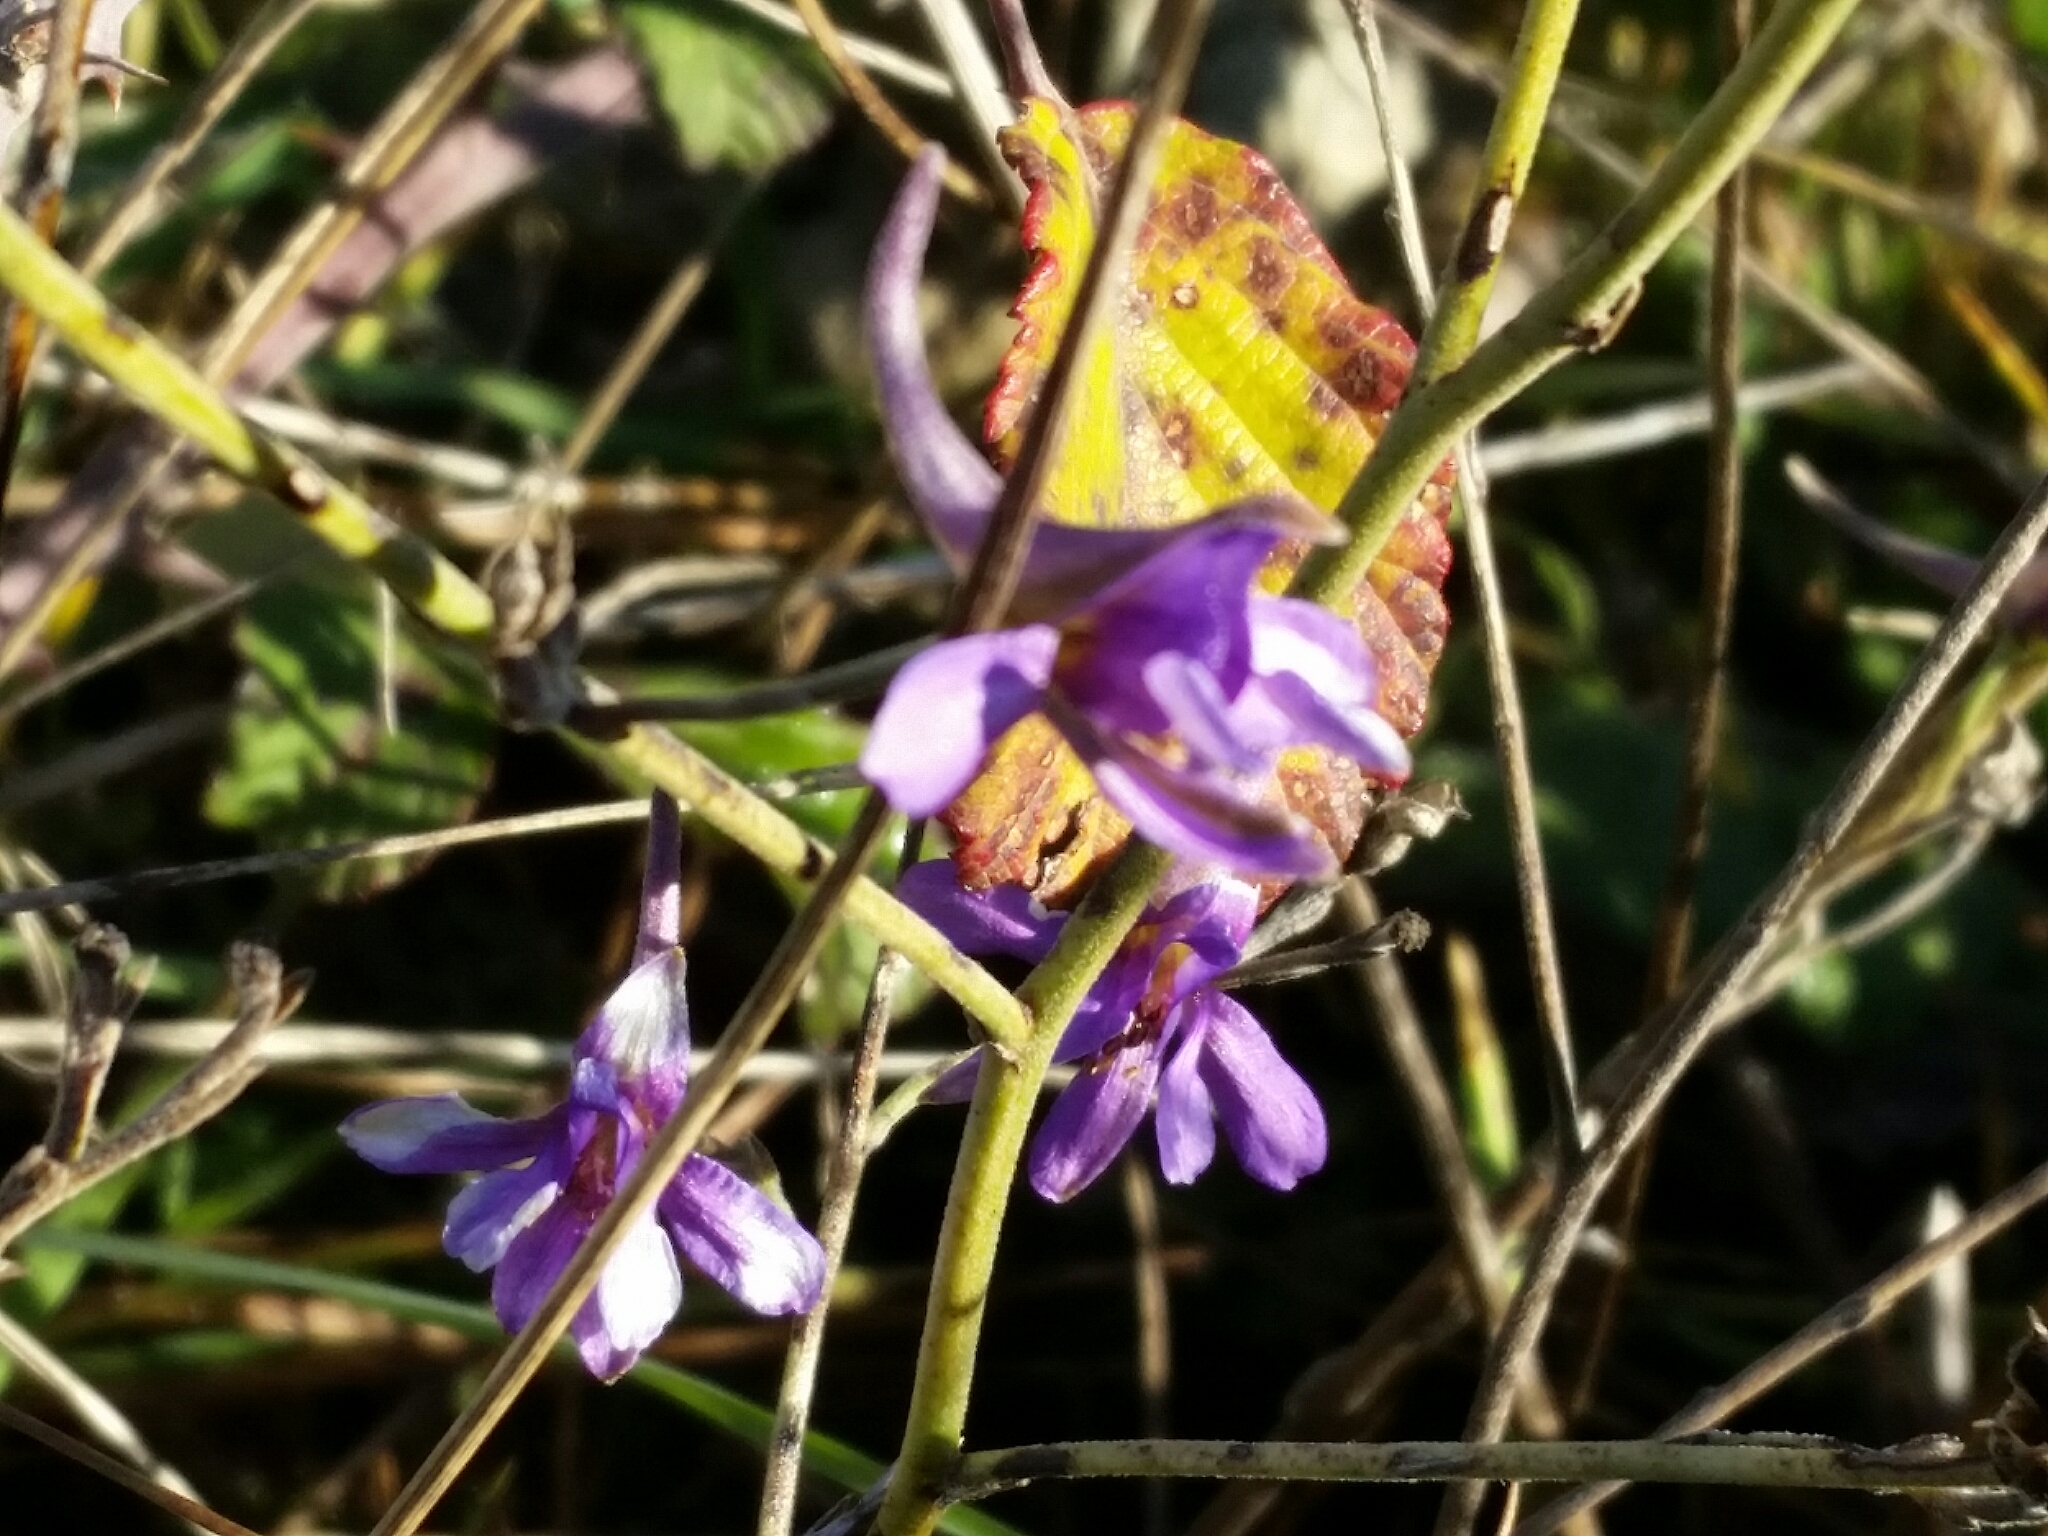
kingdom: Plantae
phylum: Tracheophyta
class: Magnoliopsida
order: Ranunculales
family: Ranunculaceae
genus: Delphinium
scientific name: Delphinium consolida
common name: Branching larkspur
